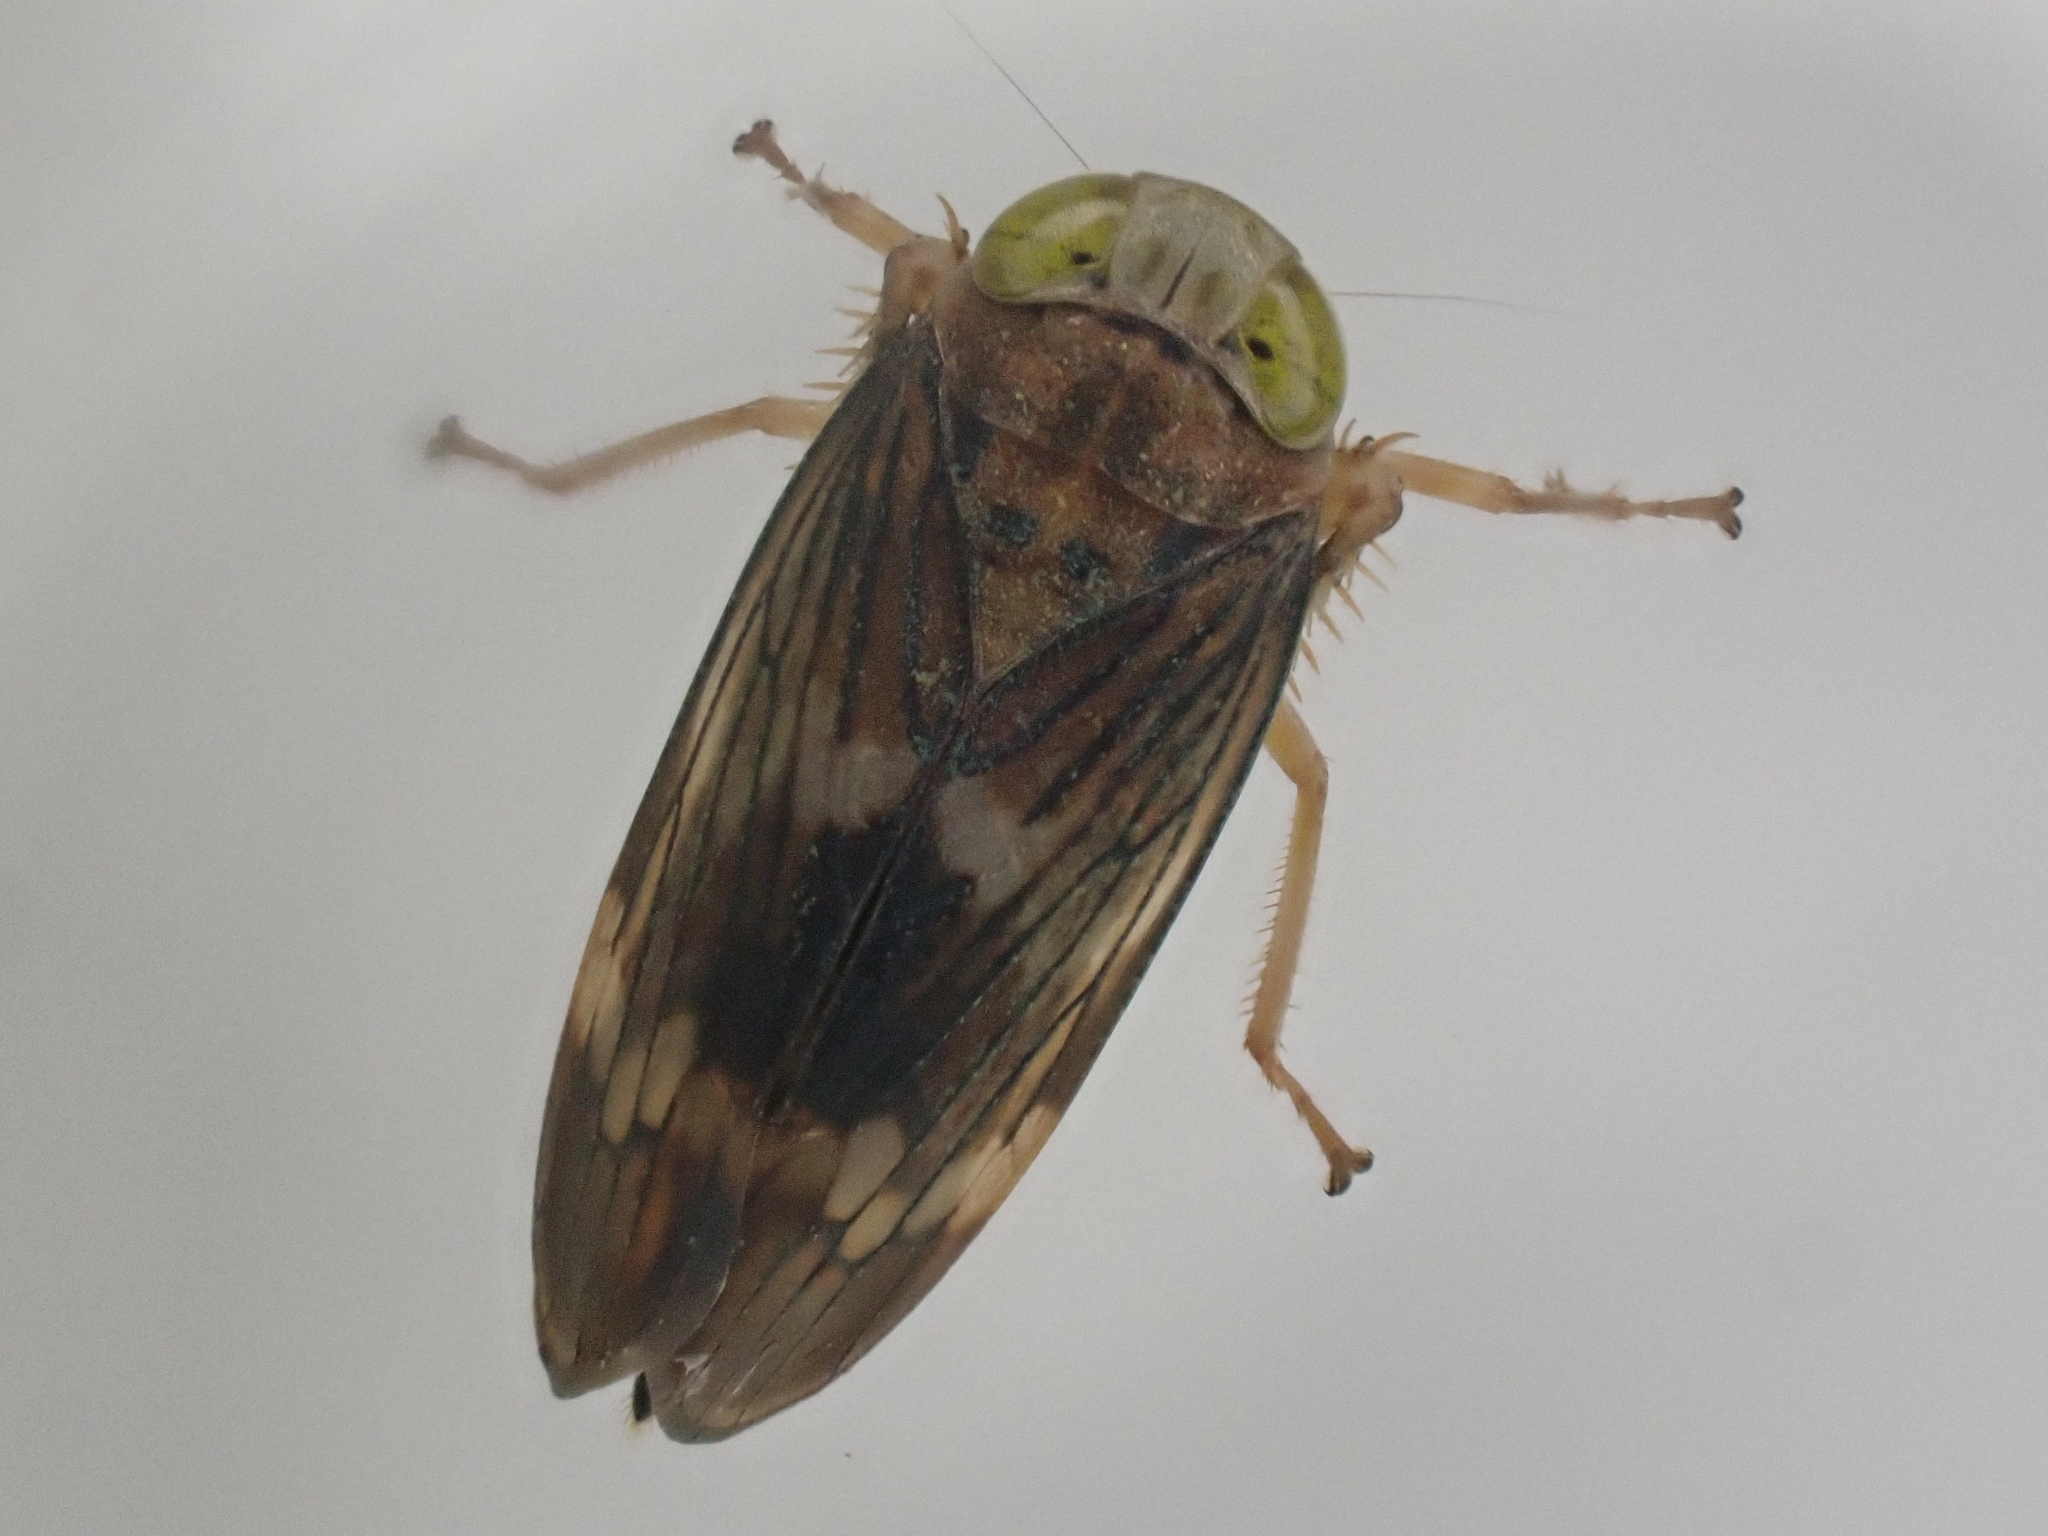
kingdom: Animalia
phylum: Arthropoda
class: Insecta
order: Hemiptera
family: Cicadellidae
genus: Jikradia
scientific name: Jikradia olitoria
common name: Coppery leafhopper
